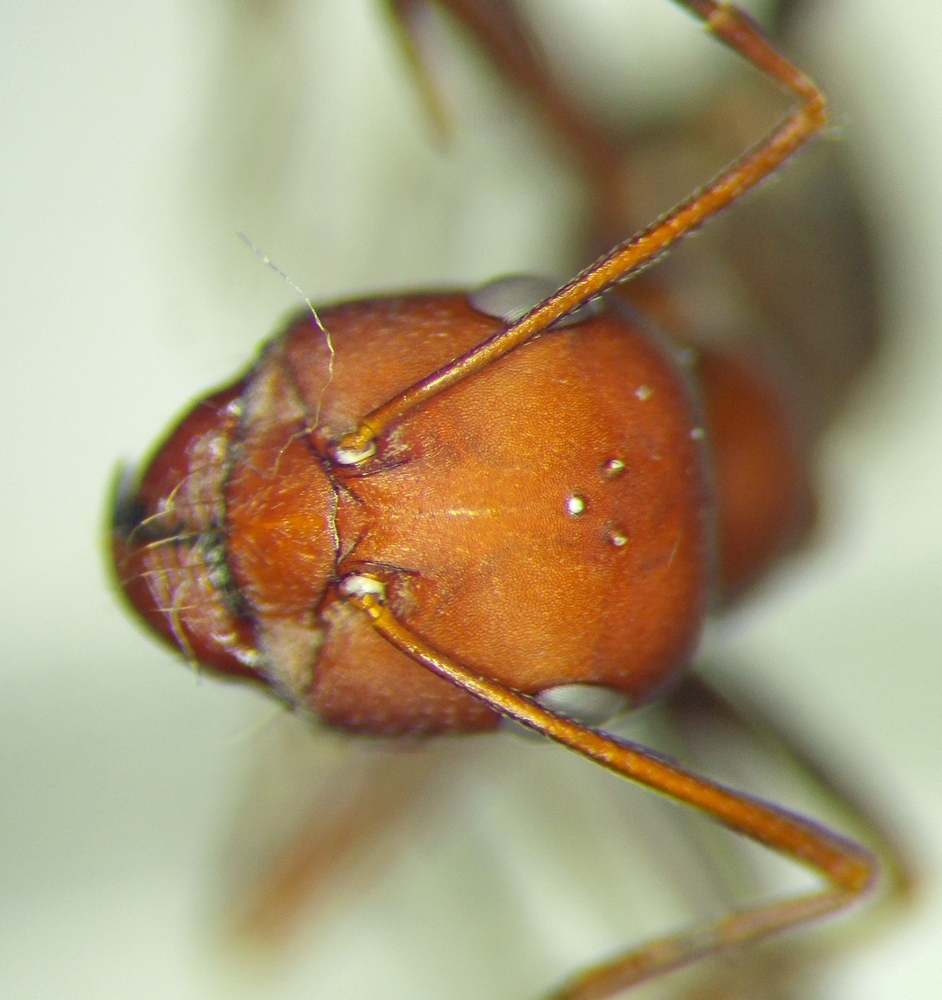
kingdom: Animalia
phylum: Arthropoda
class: Insecta
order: Hymenoptera
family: Formicidae
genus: Cataglyphis
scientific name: Cataglyphis aphrodite
